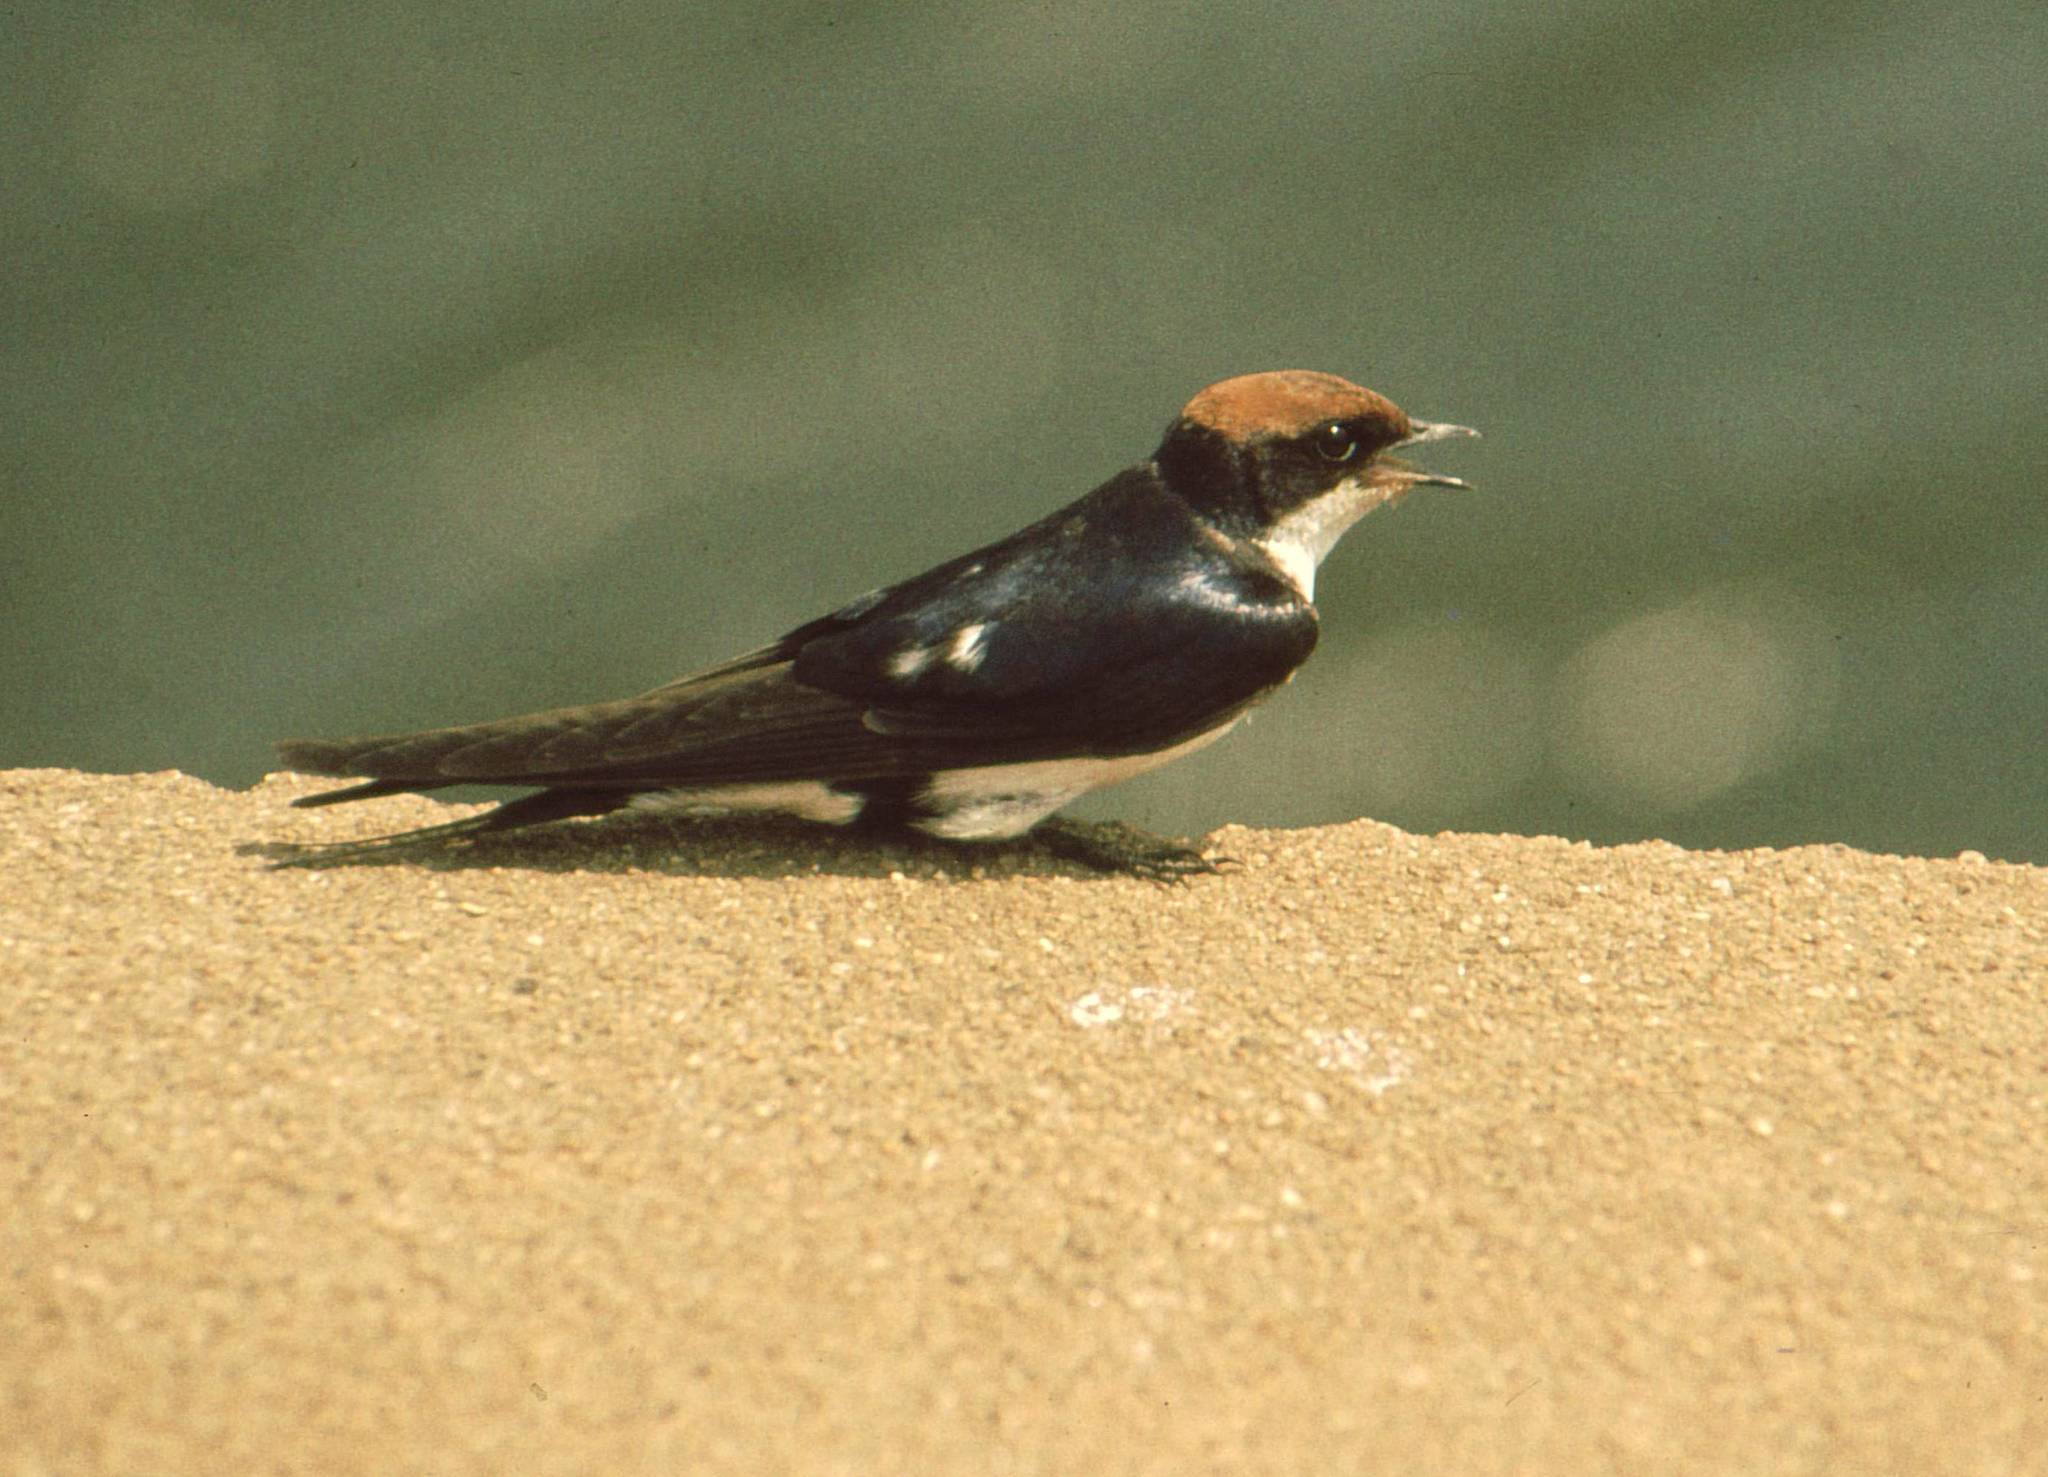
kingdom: Animalia
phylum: Chordata
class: Aves
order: Passeriformes
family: Hirundinidae
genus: Hirundo
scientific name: Hirundo smithii
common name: Wire-tailed swallow
